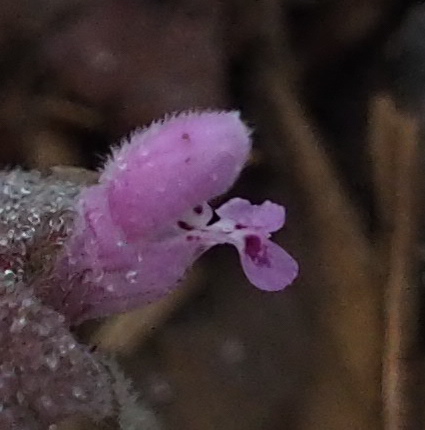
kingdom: Plantae
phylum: Tracheophyta
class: Magnoliopsida
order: Lamiales
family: Lamiaceae
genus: Lamium
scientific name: Lamium purpureum
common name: Red dead-nettle
